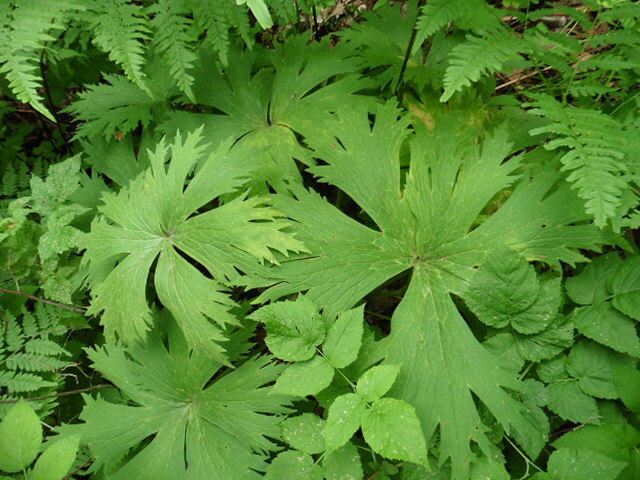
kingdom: Plantae
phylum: Tracheophyta
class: Magnoliopsida
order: Ranunculales
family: Ranunculaceae
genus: Aconitum
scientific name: Aconitum septentrionale
